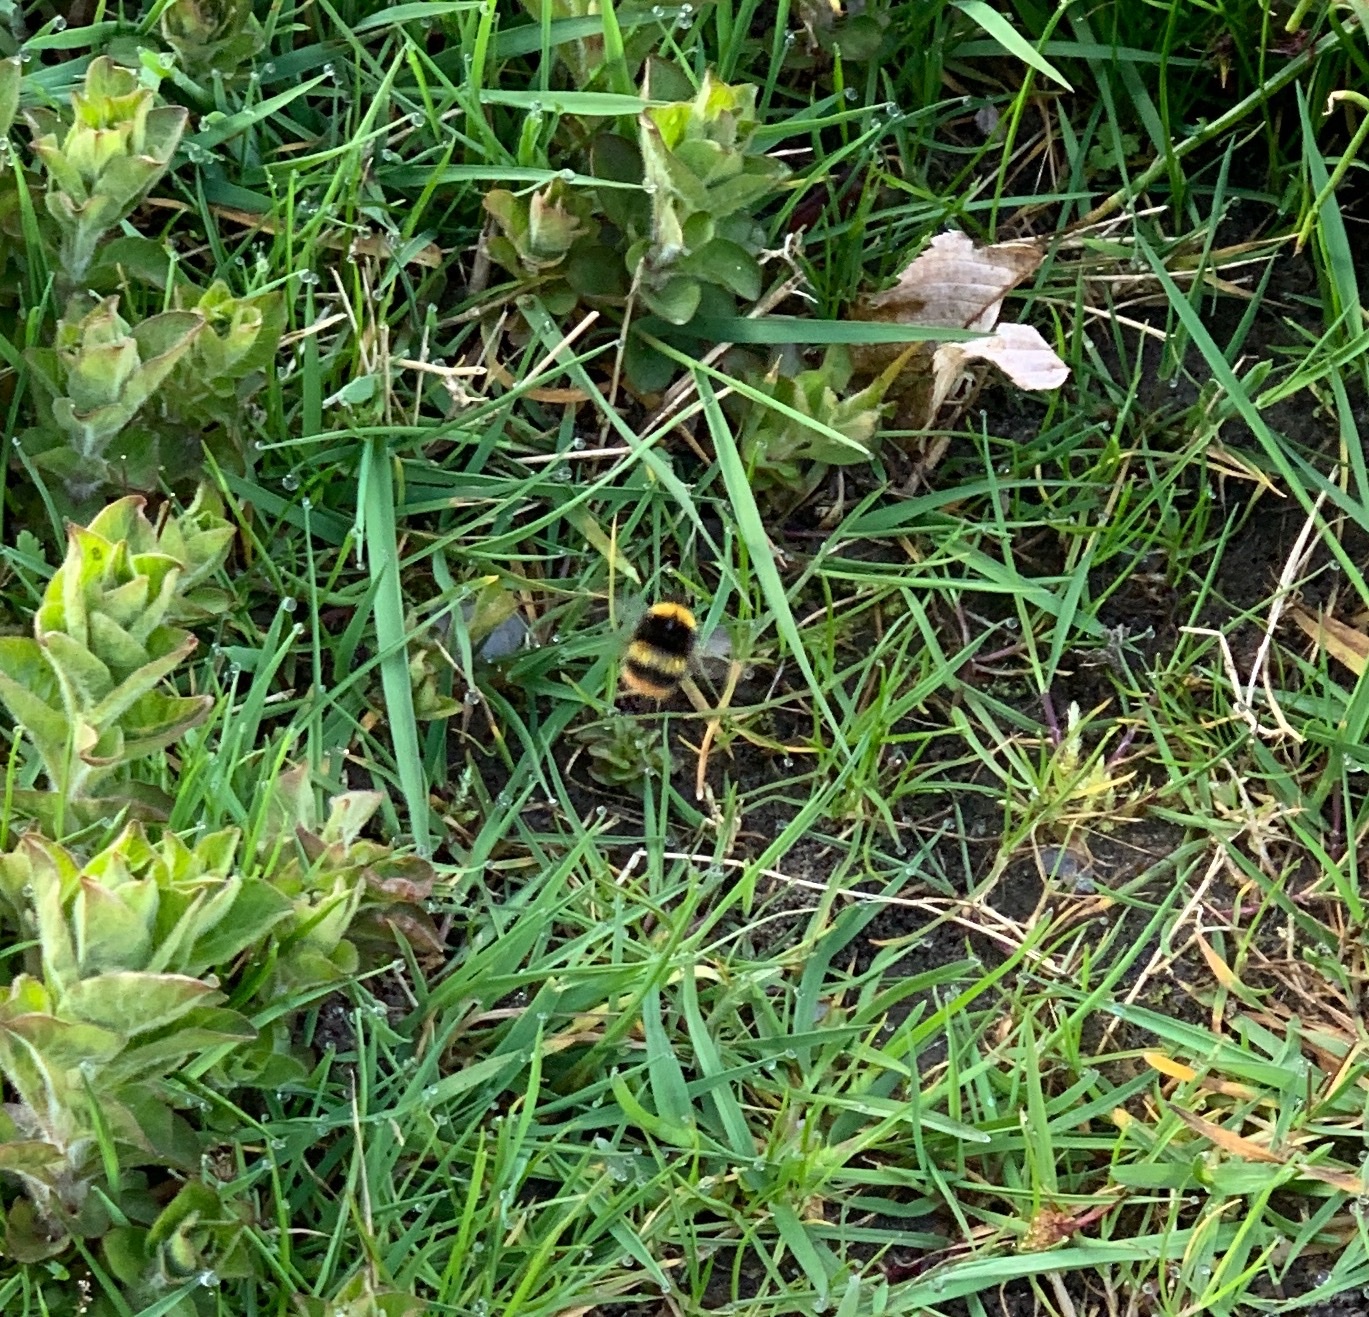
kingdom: Animalia
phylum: Arthropoda
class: Insecta
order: Hymenoptera
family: Apidae
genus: Bombus
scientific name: Bombus pratorum
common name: Early humble-bee
